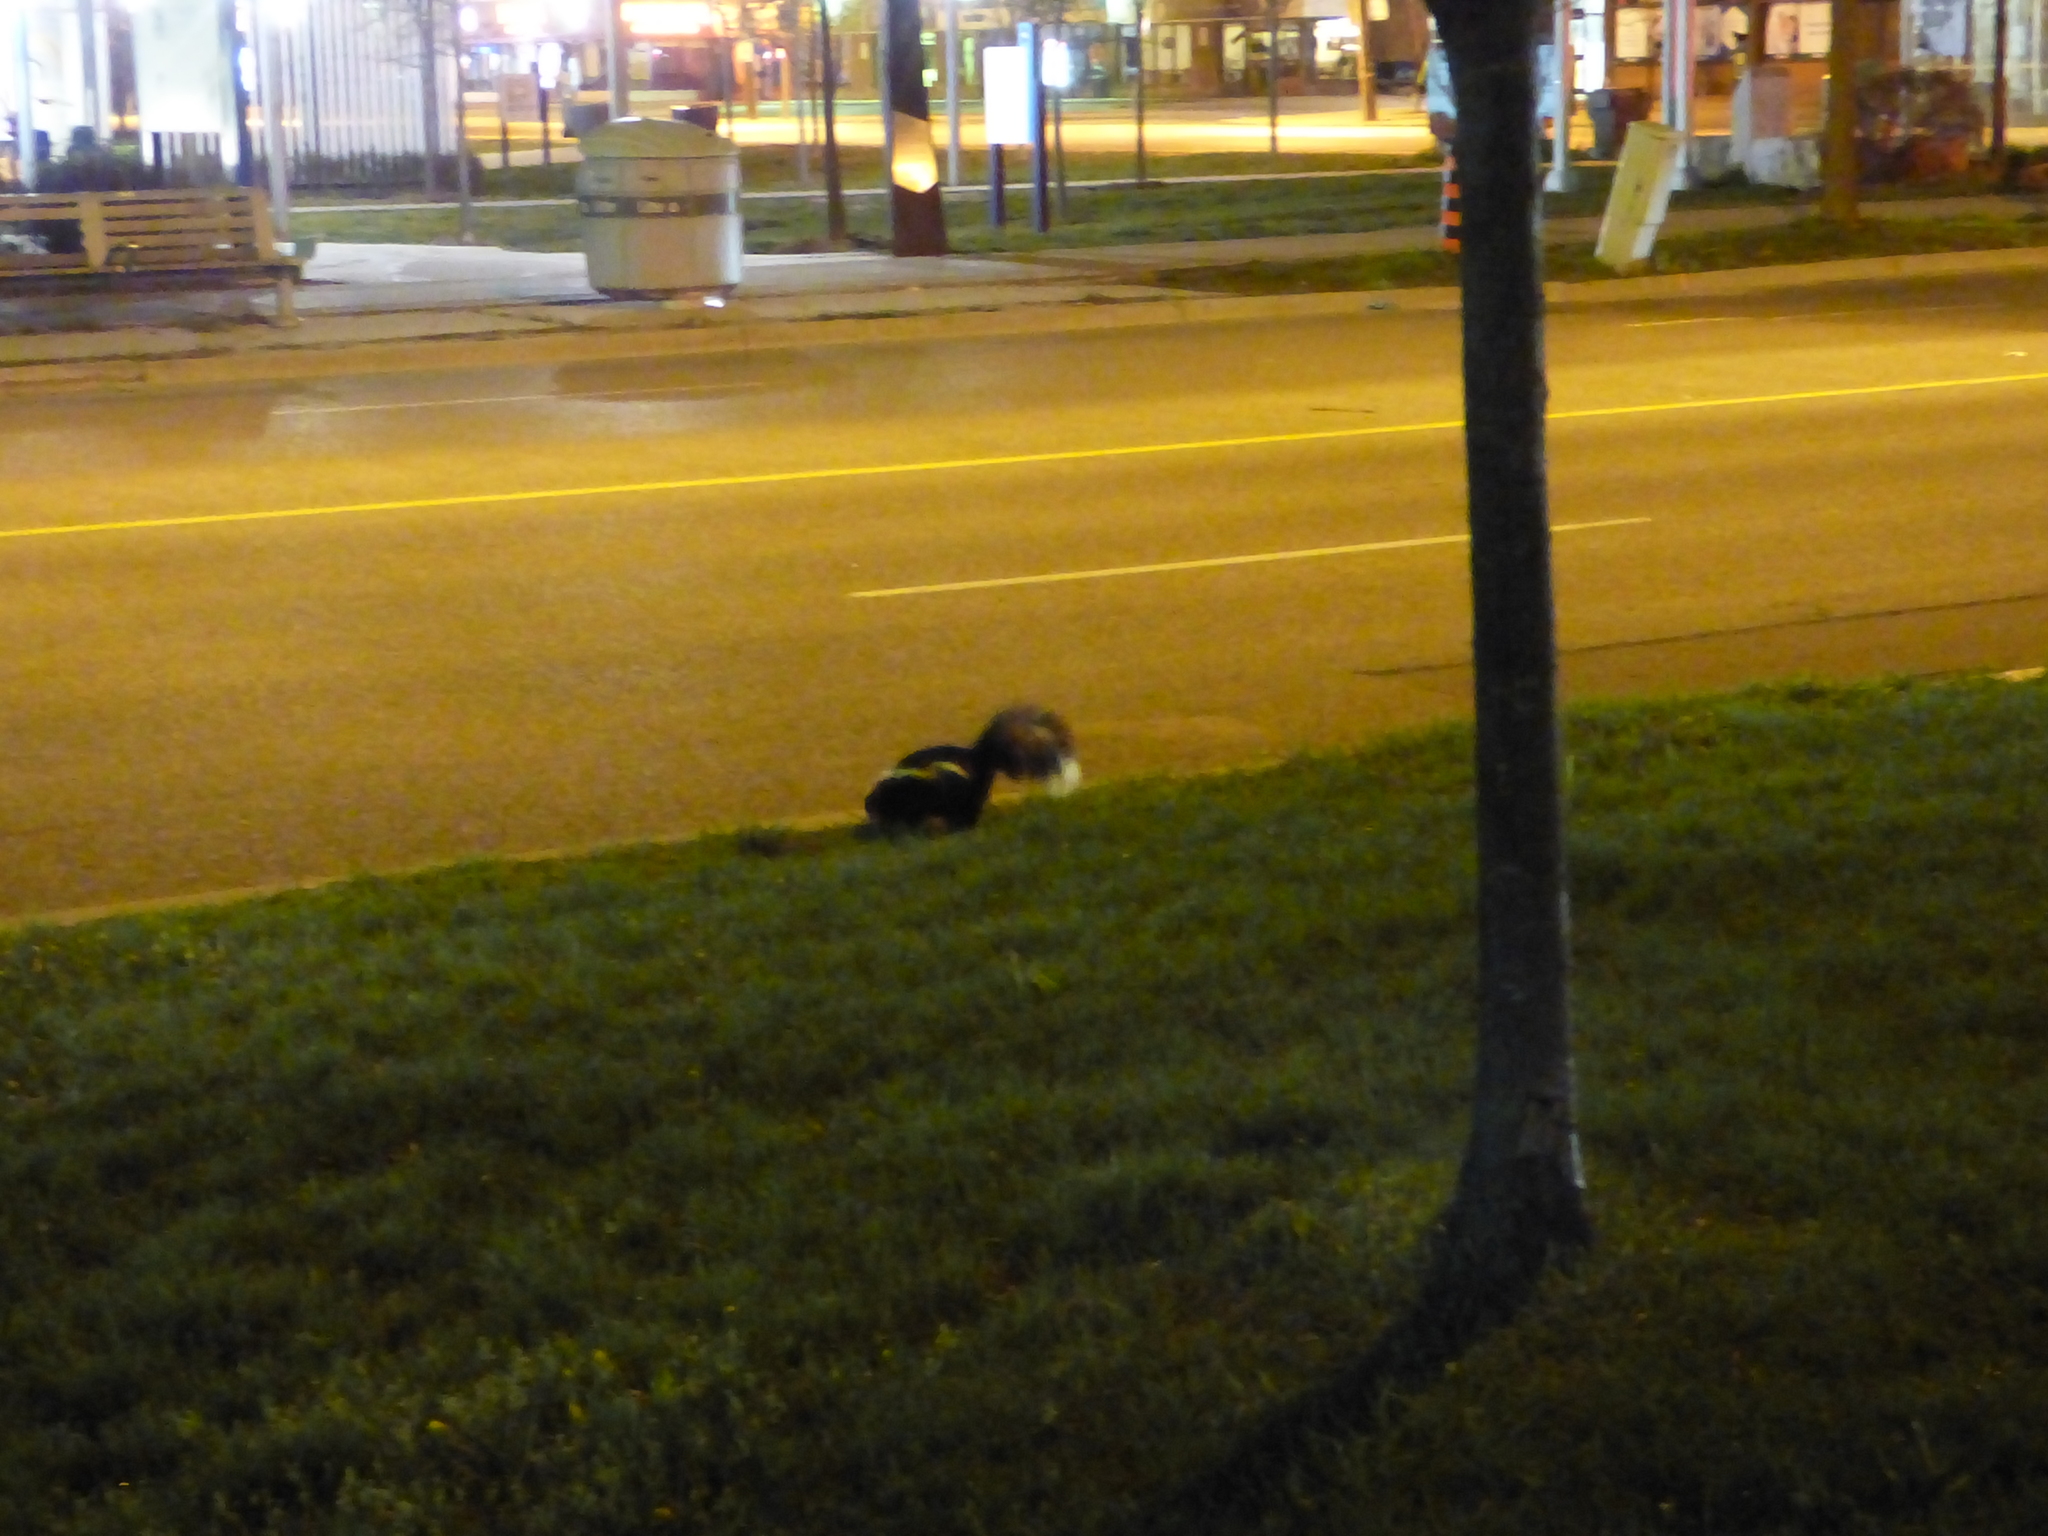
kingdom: Animalia
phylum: Chordata
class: Mammalia
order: Carnivora
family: Mephitidae
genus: Mephitis
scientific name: Mephitis mephitis
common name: Striped skunk
